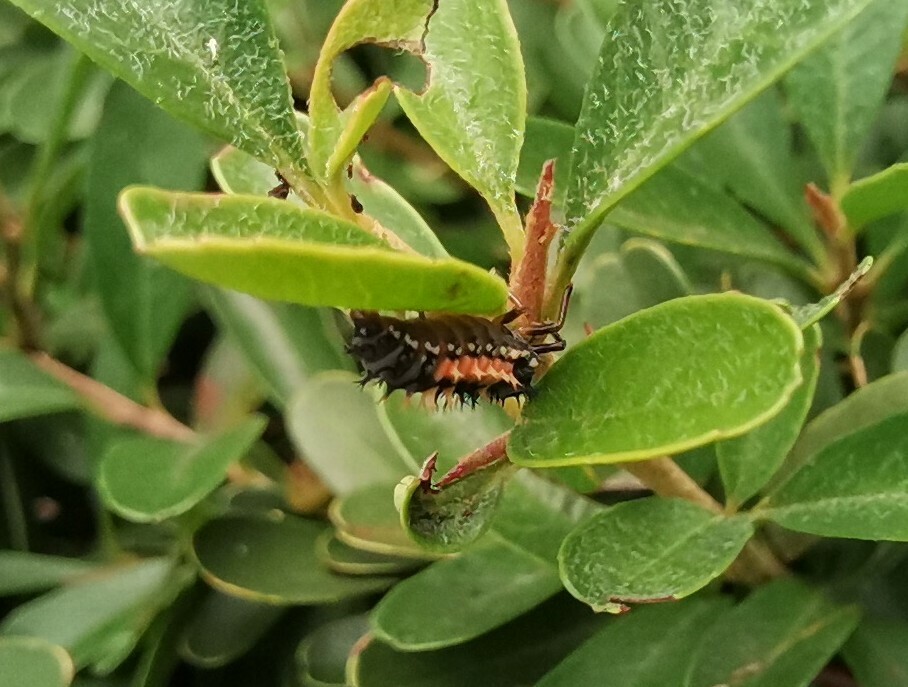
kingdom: Animalia
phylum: Arthropoda
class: Insecta
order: Coleoptera
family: Coccinellidae
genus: Harmonia
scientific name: Harmonia axyridis
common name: Harlequin ladybird
